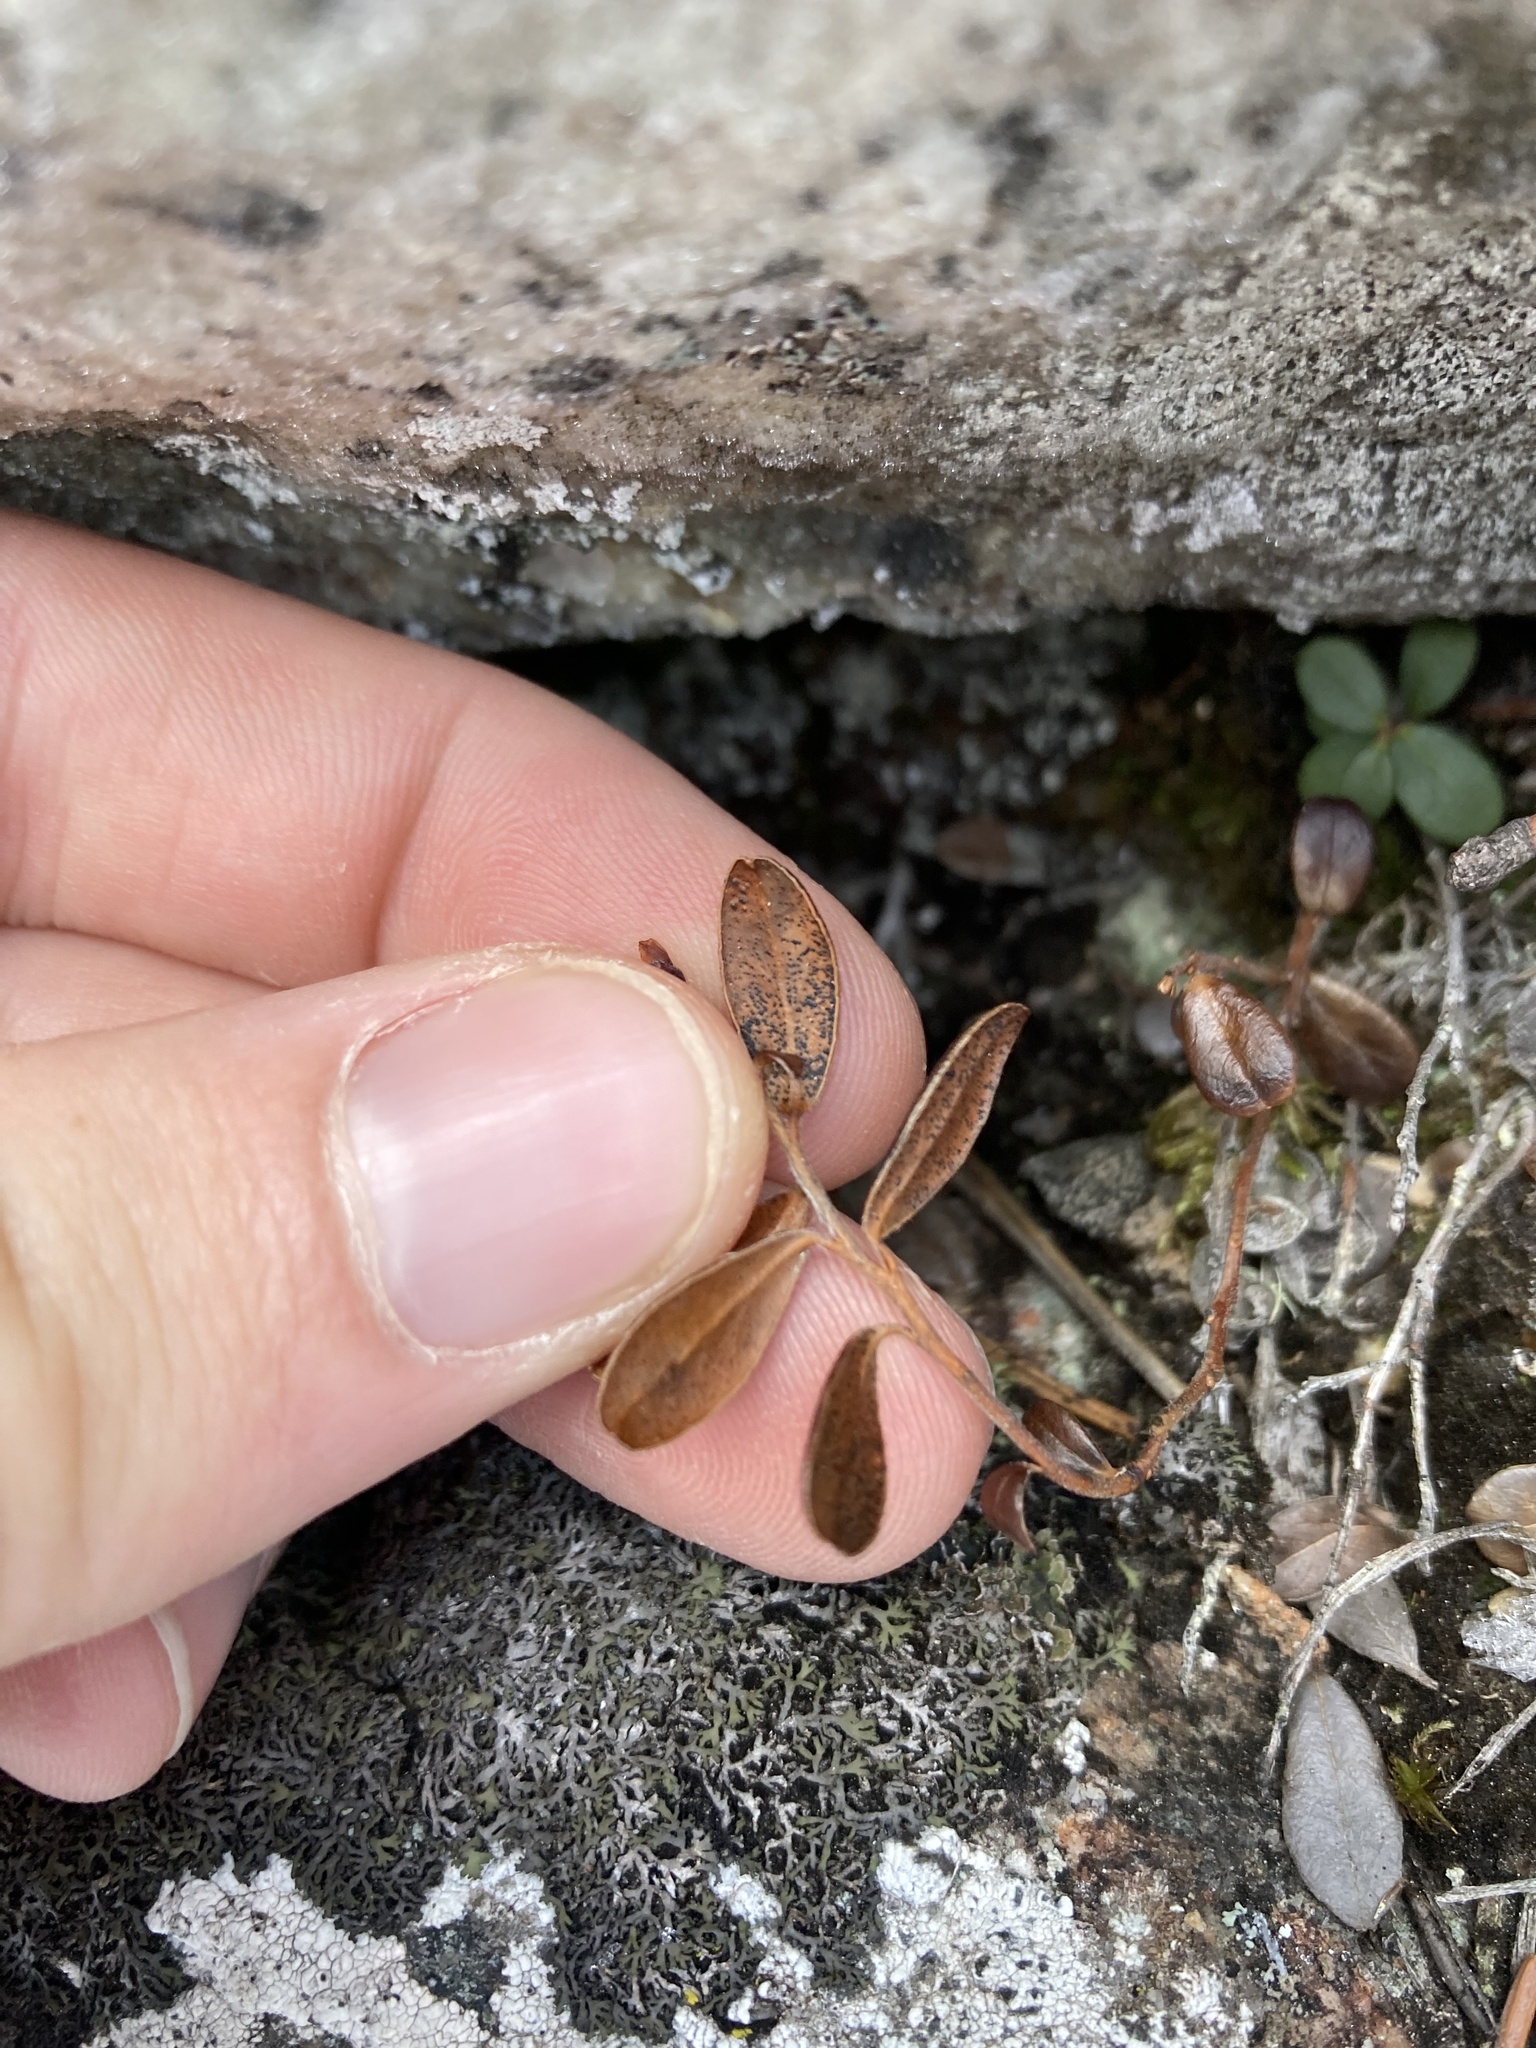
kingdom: Plantae
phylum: Tracheophyta
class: Magnoliopsida
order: Ericales
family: Ericaceae
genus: Vaccinium
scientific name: Vaccinium vitis-idaea
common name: Cowberry
